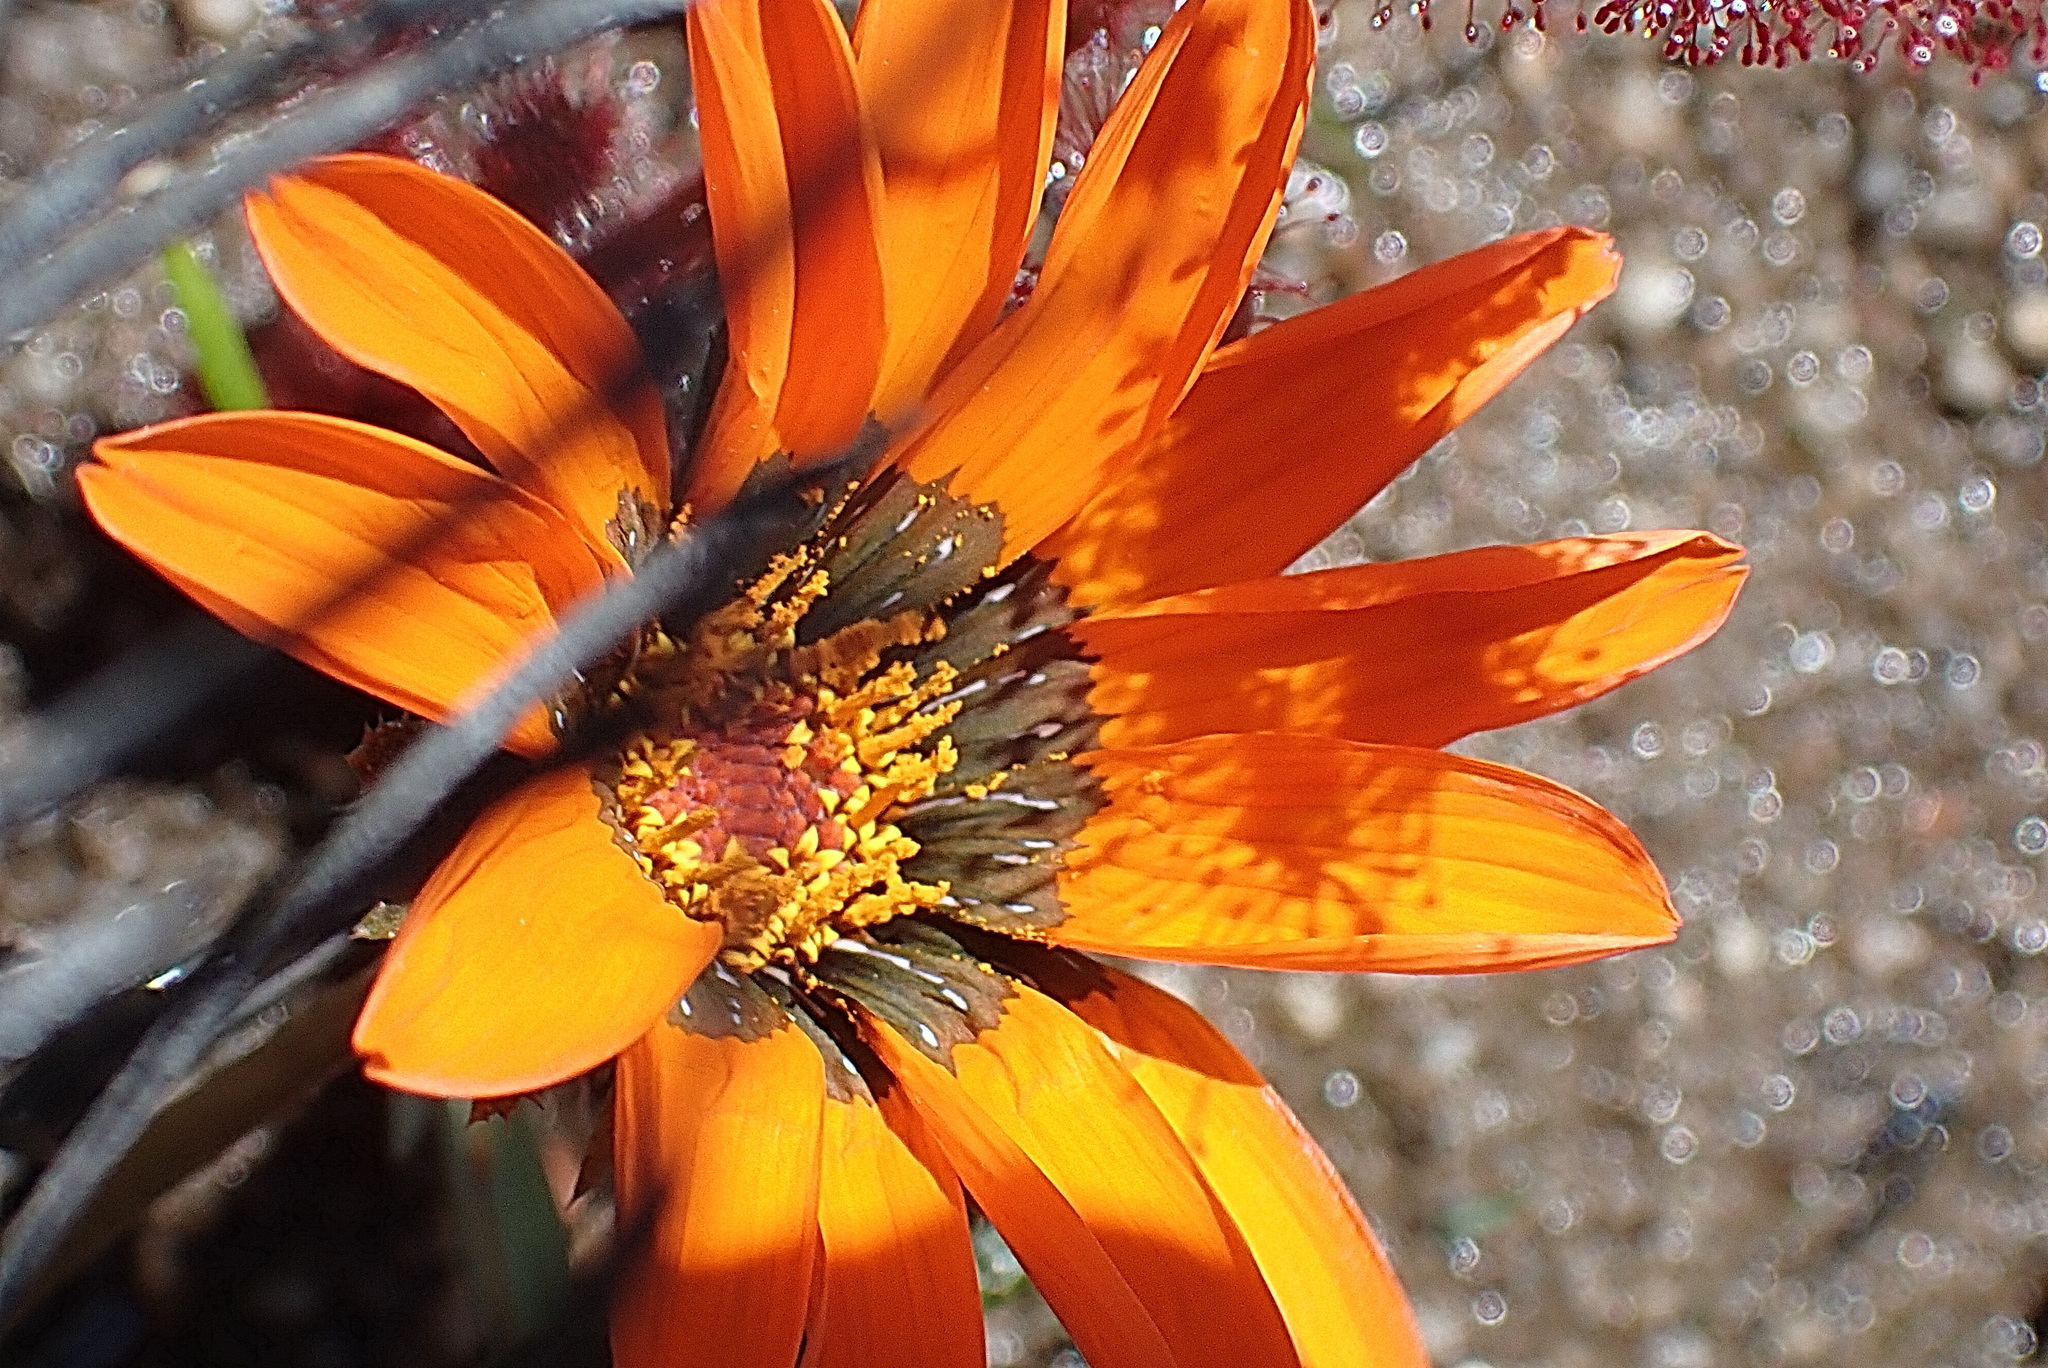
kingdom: Plantae
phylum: Tracheophyta
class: Magnoliopsida
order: Asterales
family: Asteraceae
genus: Gazania
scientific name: Gazania serrata
